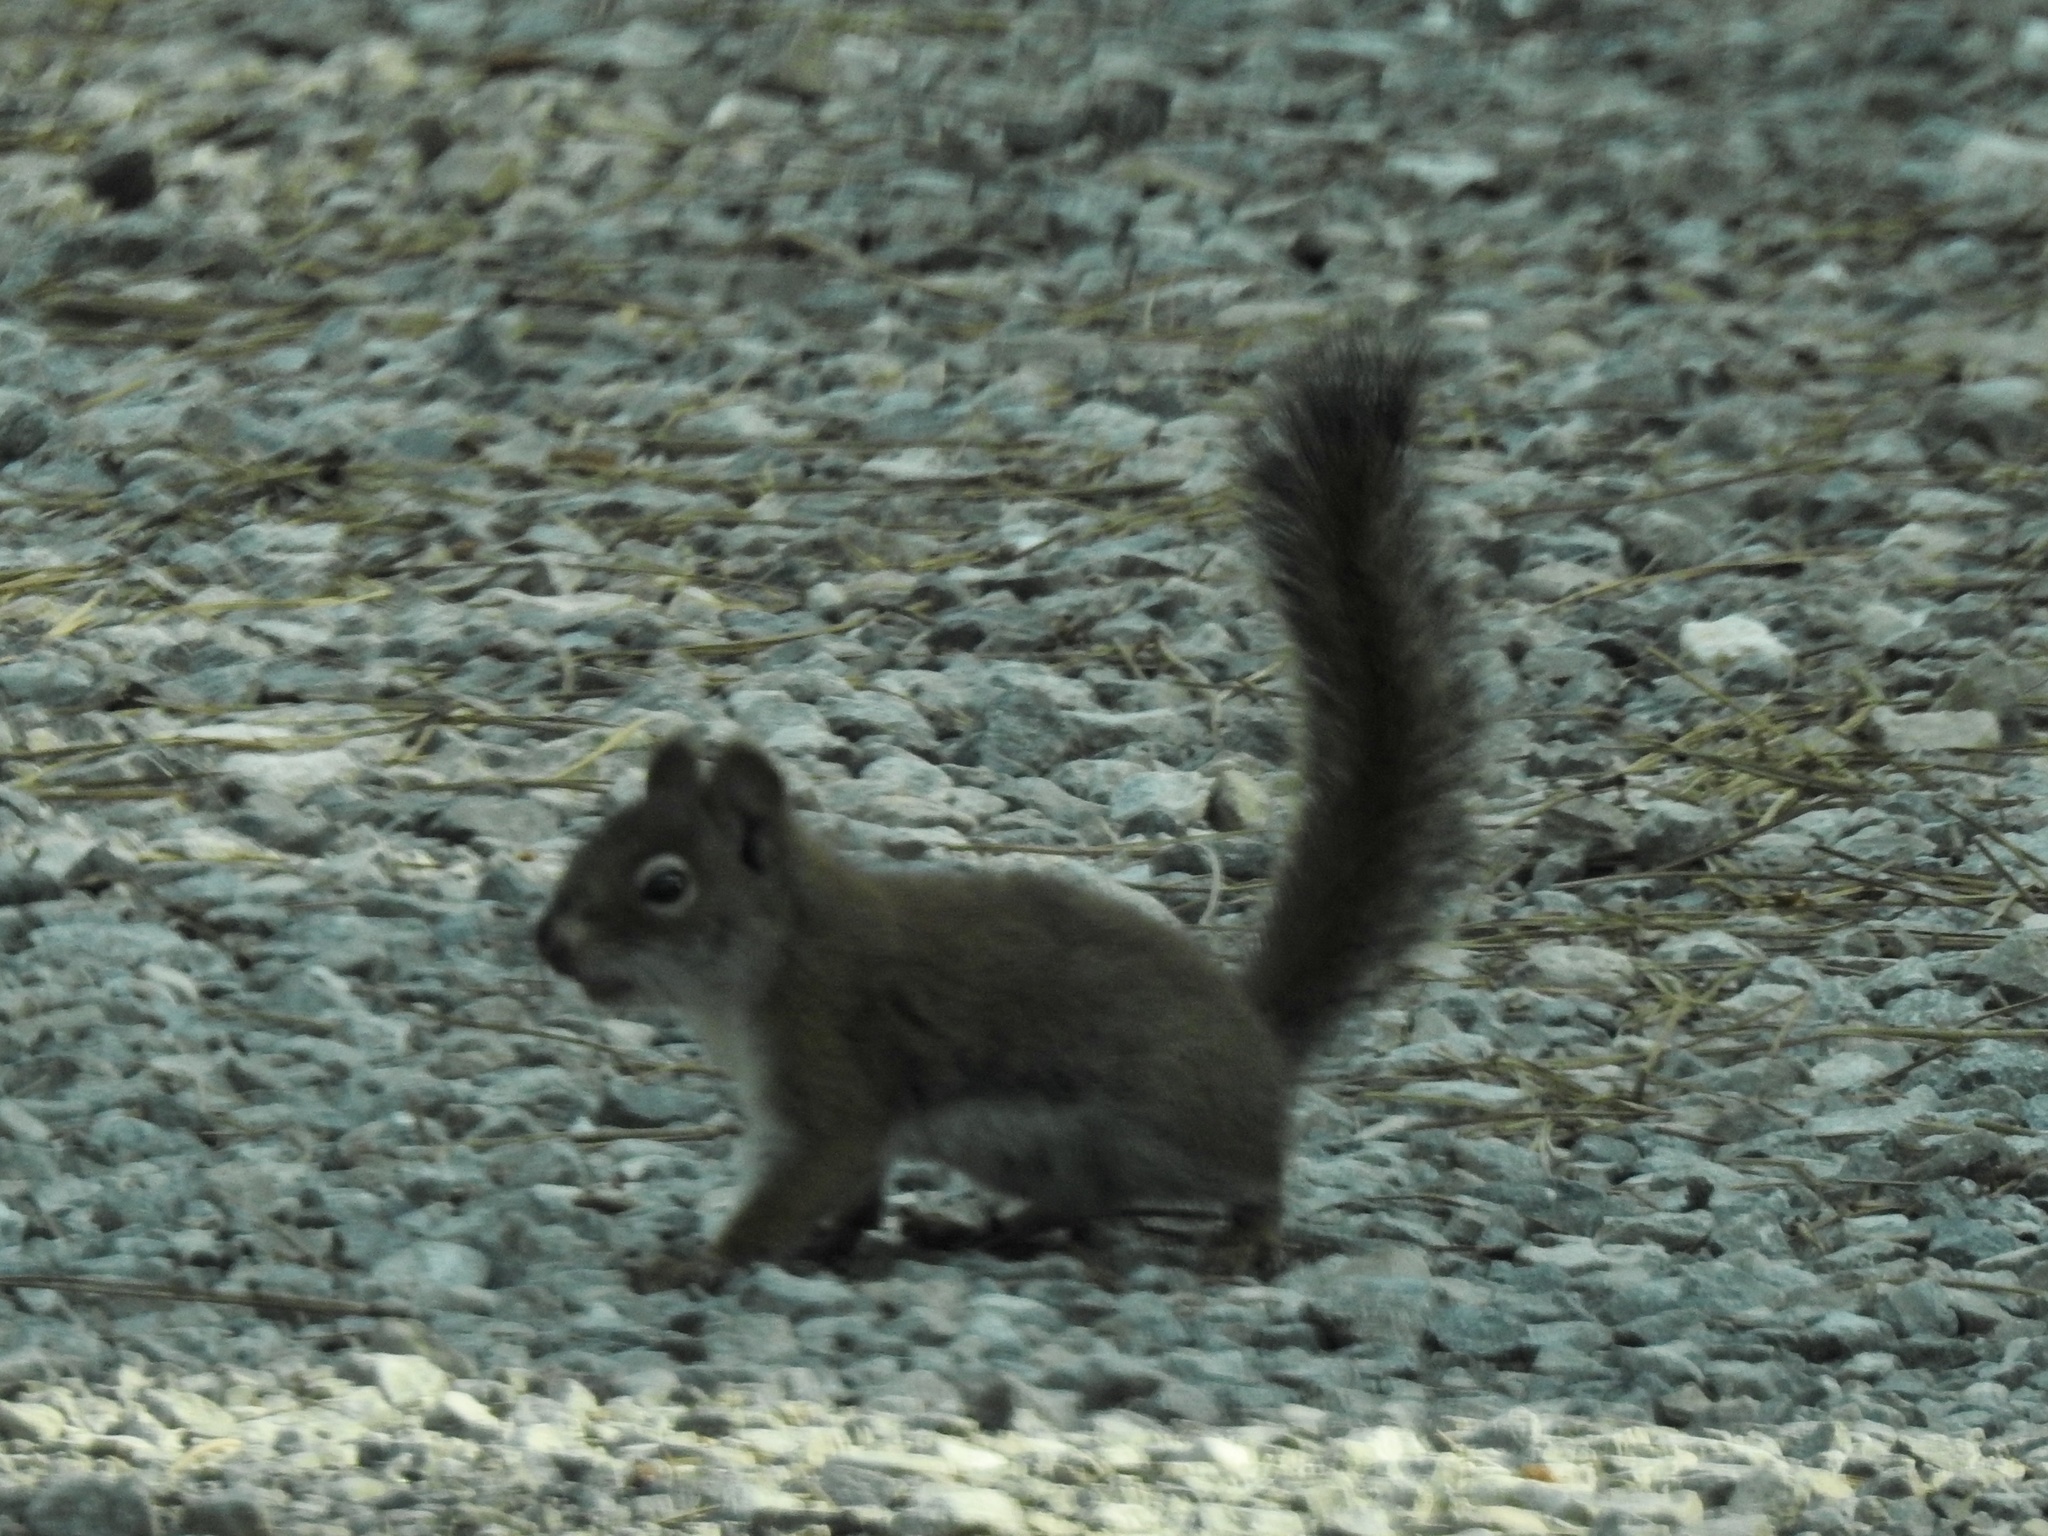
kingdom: Animalia
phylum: Chordata
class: Mammalia
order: Rodentia
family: Sciuridae
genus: Tamiasciurus
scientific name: Tamiasciurus hudsonicus
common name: Red squirrel
